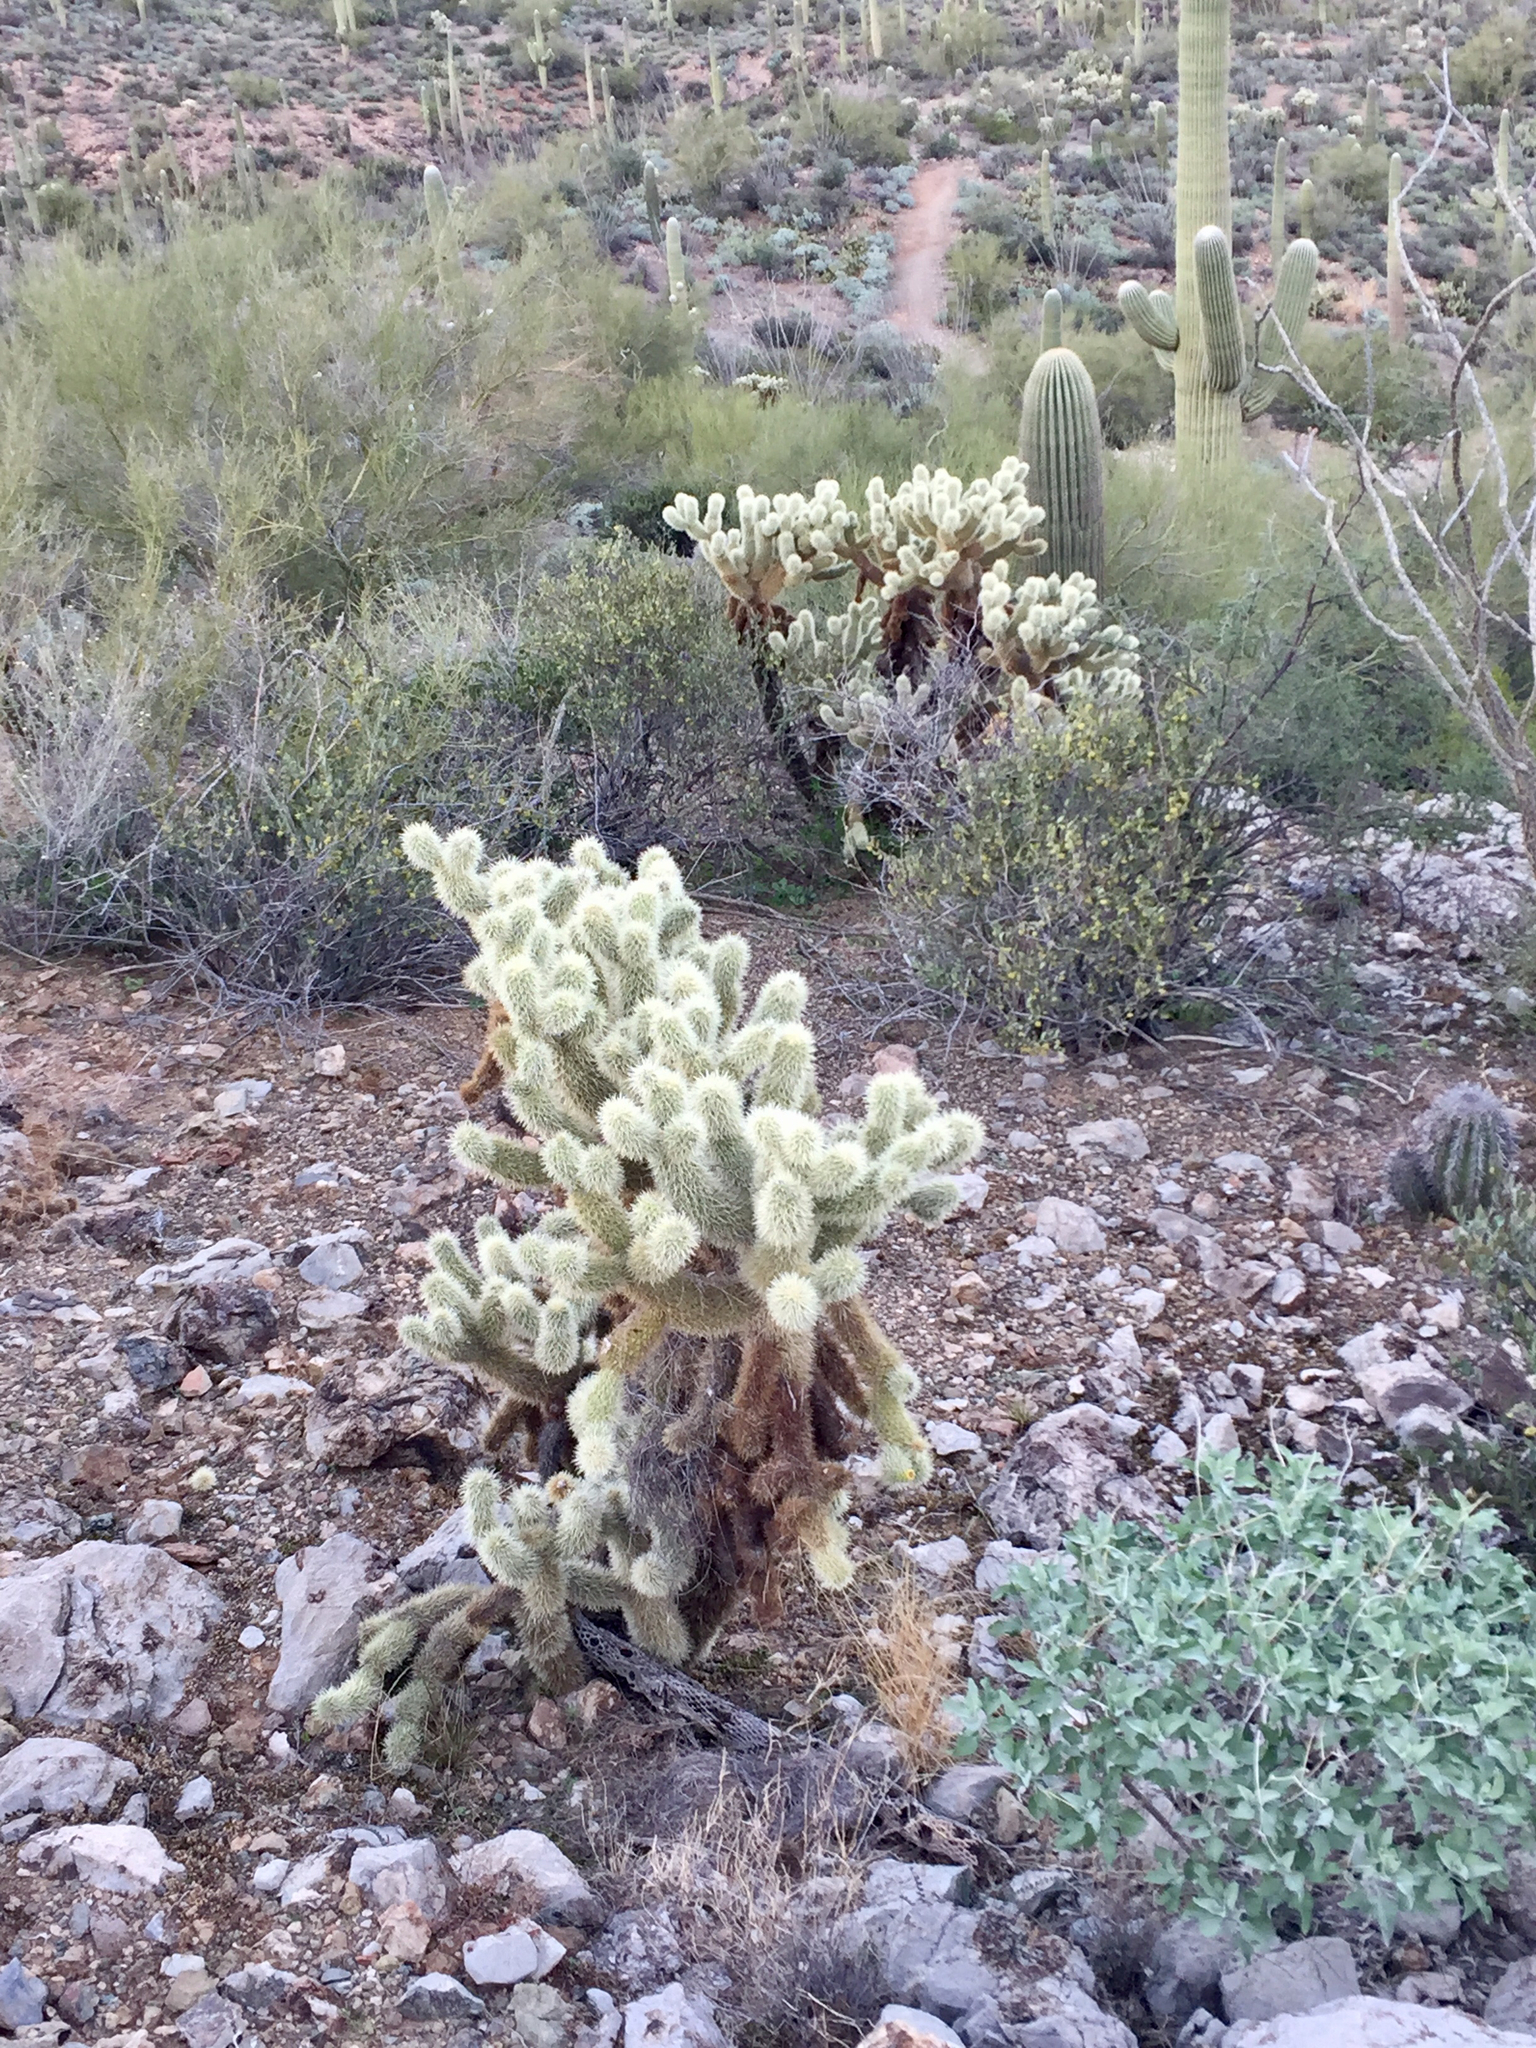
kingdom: Plantae
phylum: Tracheophyta
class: Magnoliopsida
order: Caryophyllales
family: Cactaceae
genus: Cylindropuntia
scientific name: Cylindropuntia fosbergii
